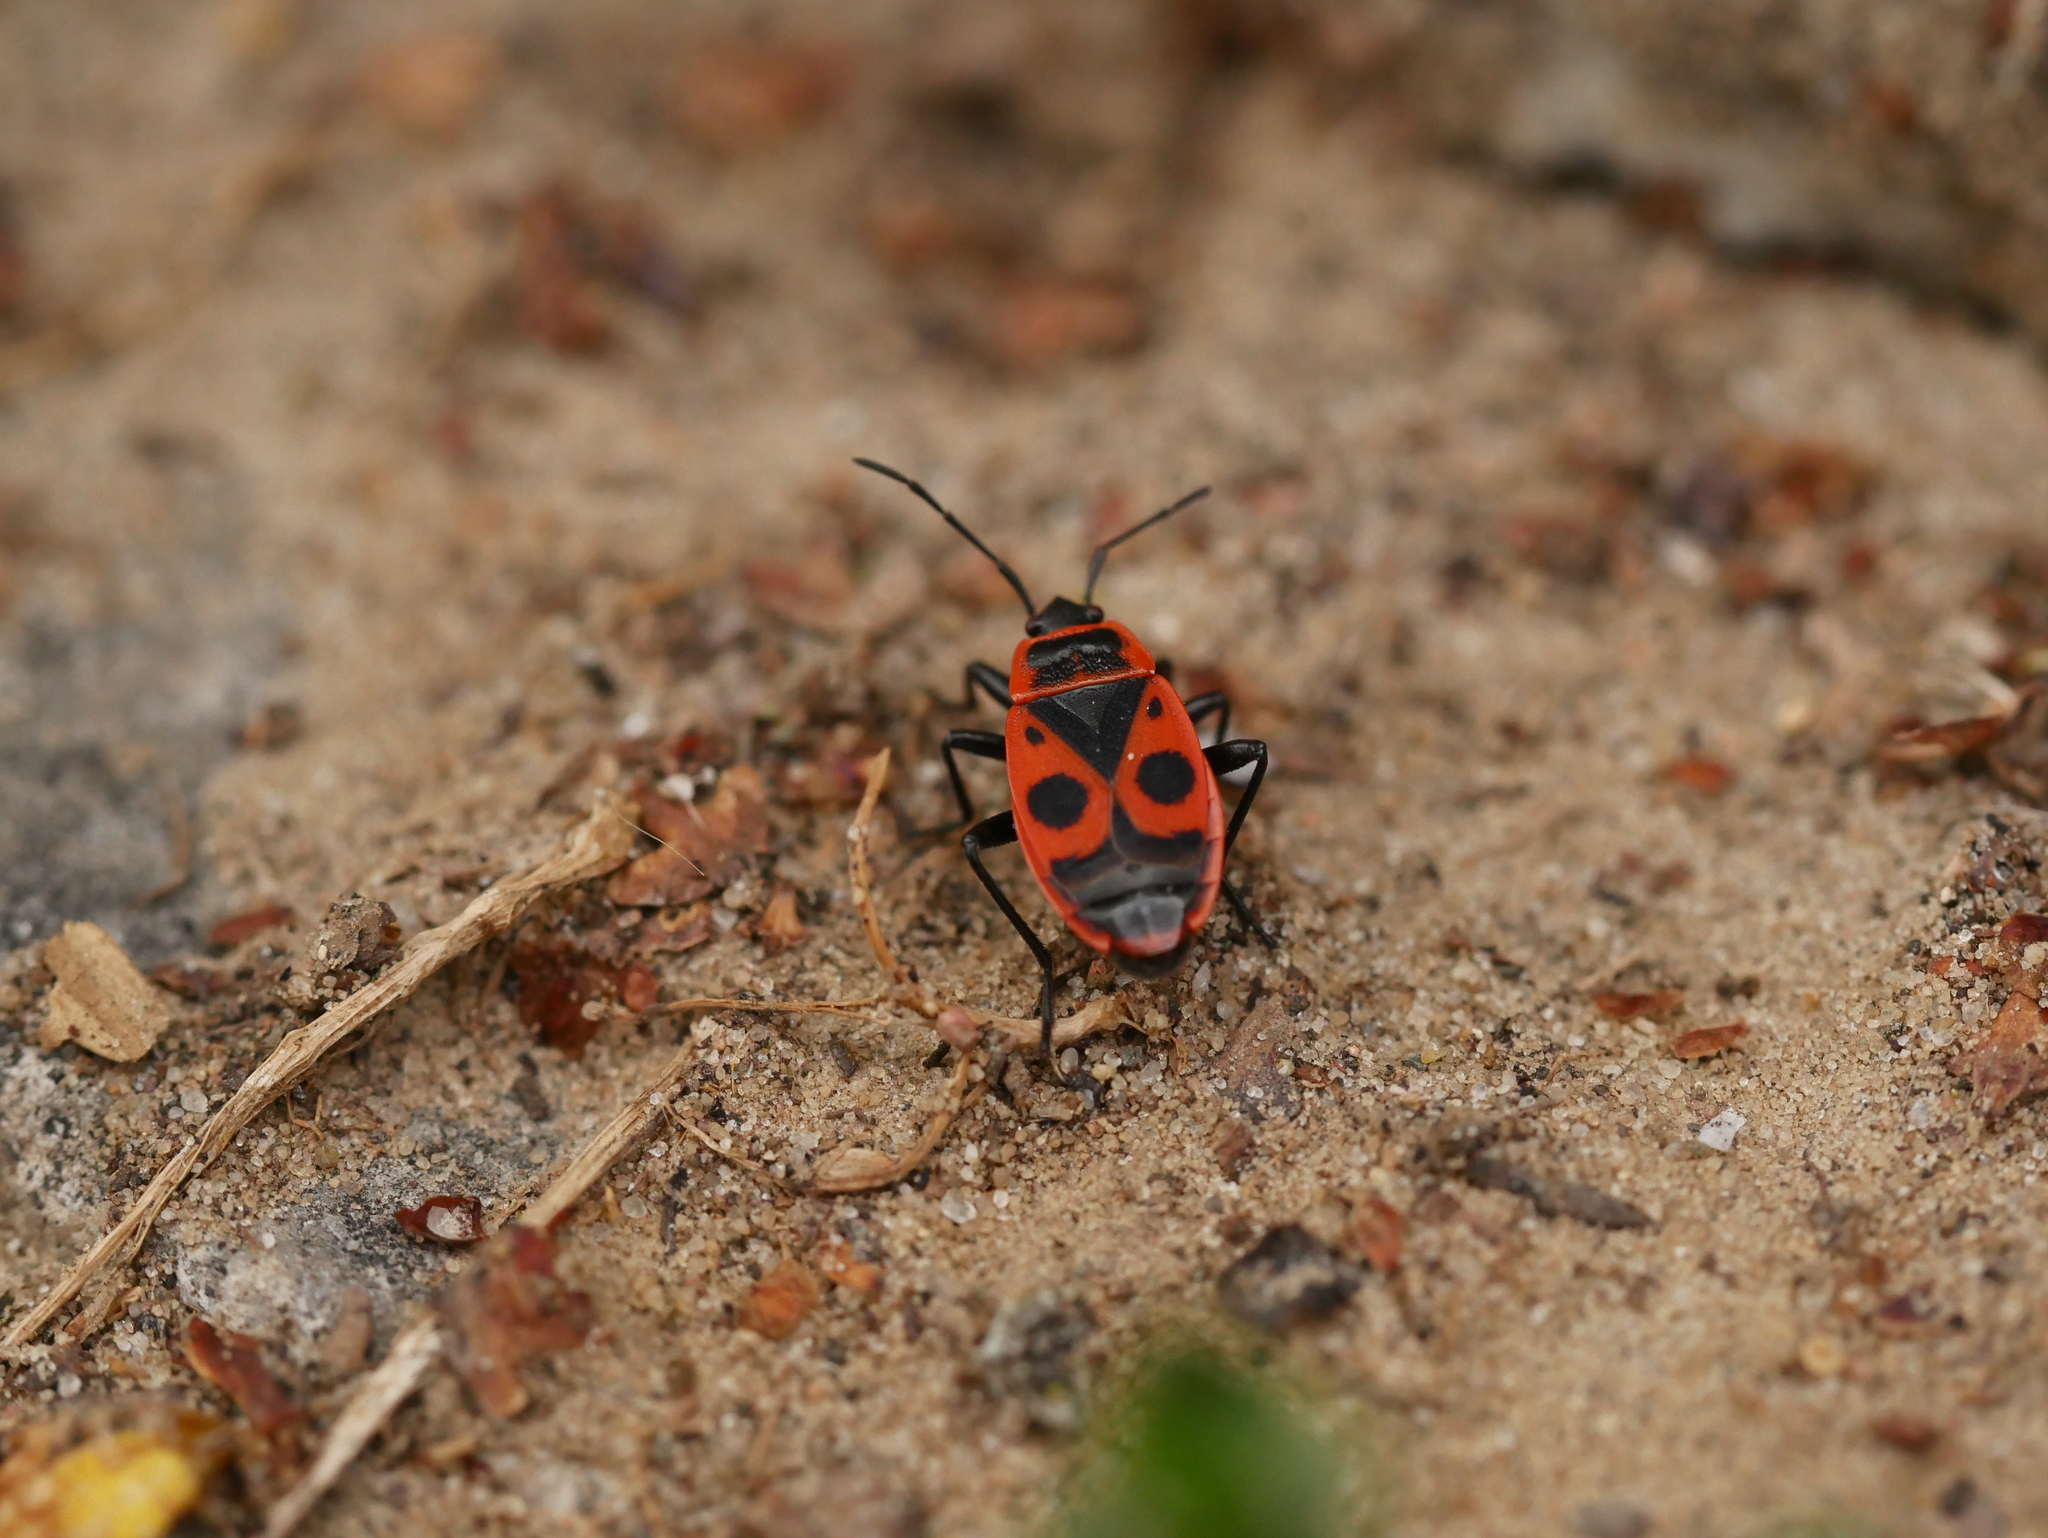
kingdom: Animalia
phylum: Arthropoda
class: Insecta
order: Hemiptera
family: Pyrrhocoridae
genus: Pyrrhocoris
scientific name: Pyrrhocoris apterus
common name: Firebug
